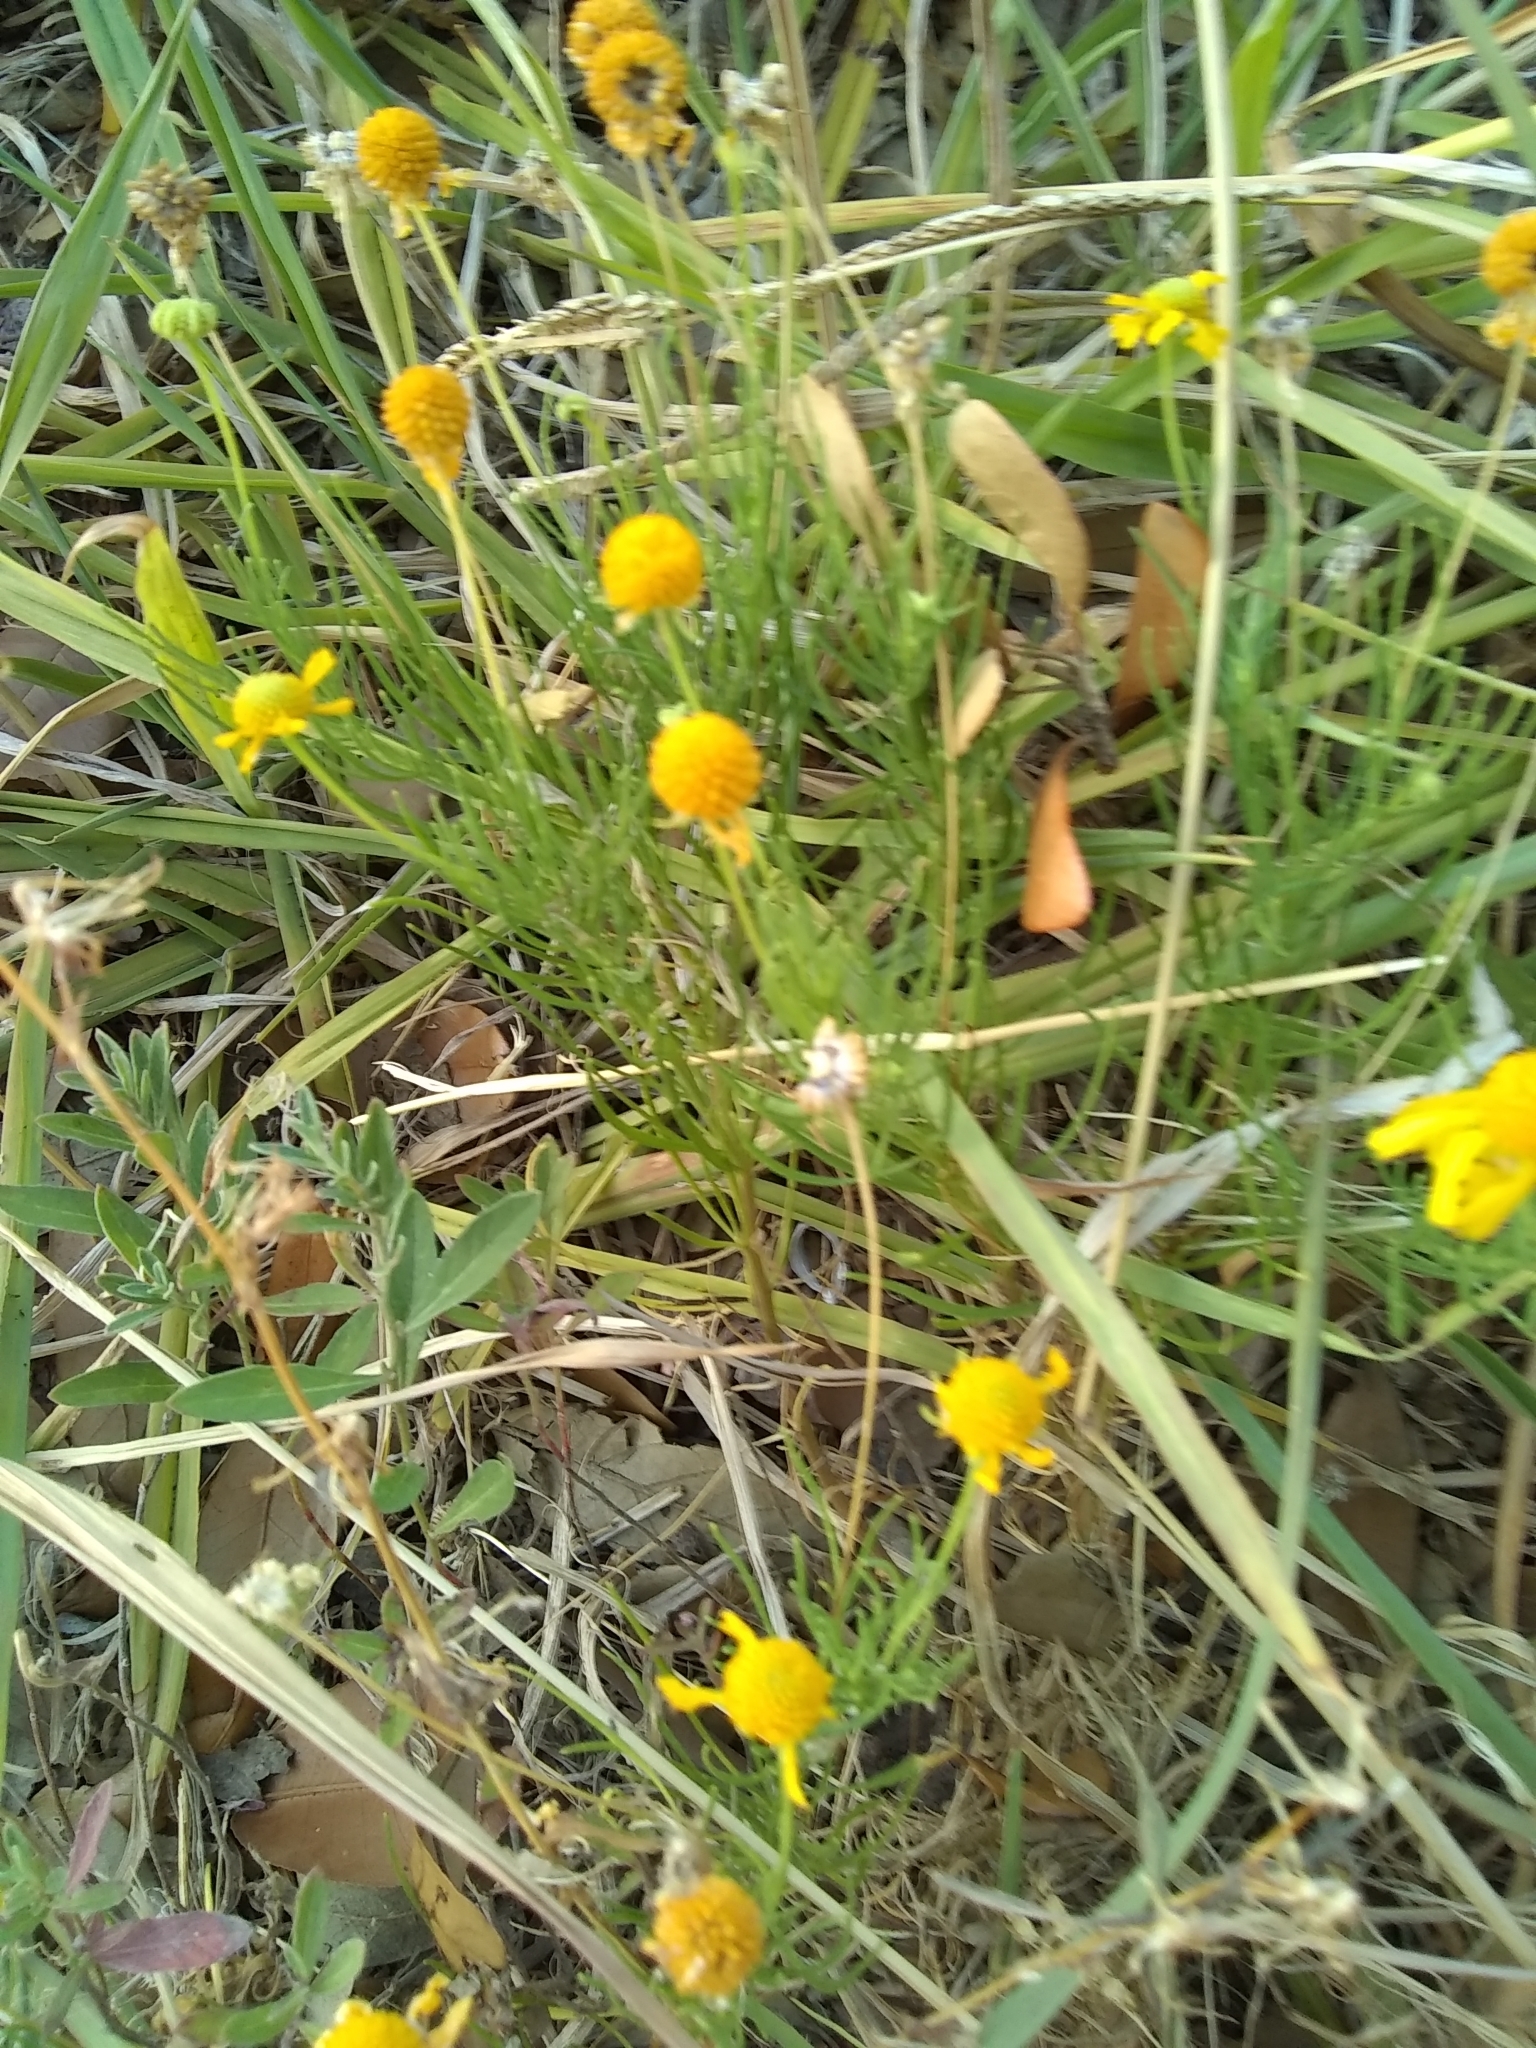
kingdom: Plantae
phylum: Tracheophyta
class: Magnoliopsida
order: Asterales
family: Asteraceae
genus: Helenium
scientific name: Helenium amarum
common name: Bitter sneezeweed
